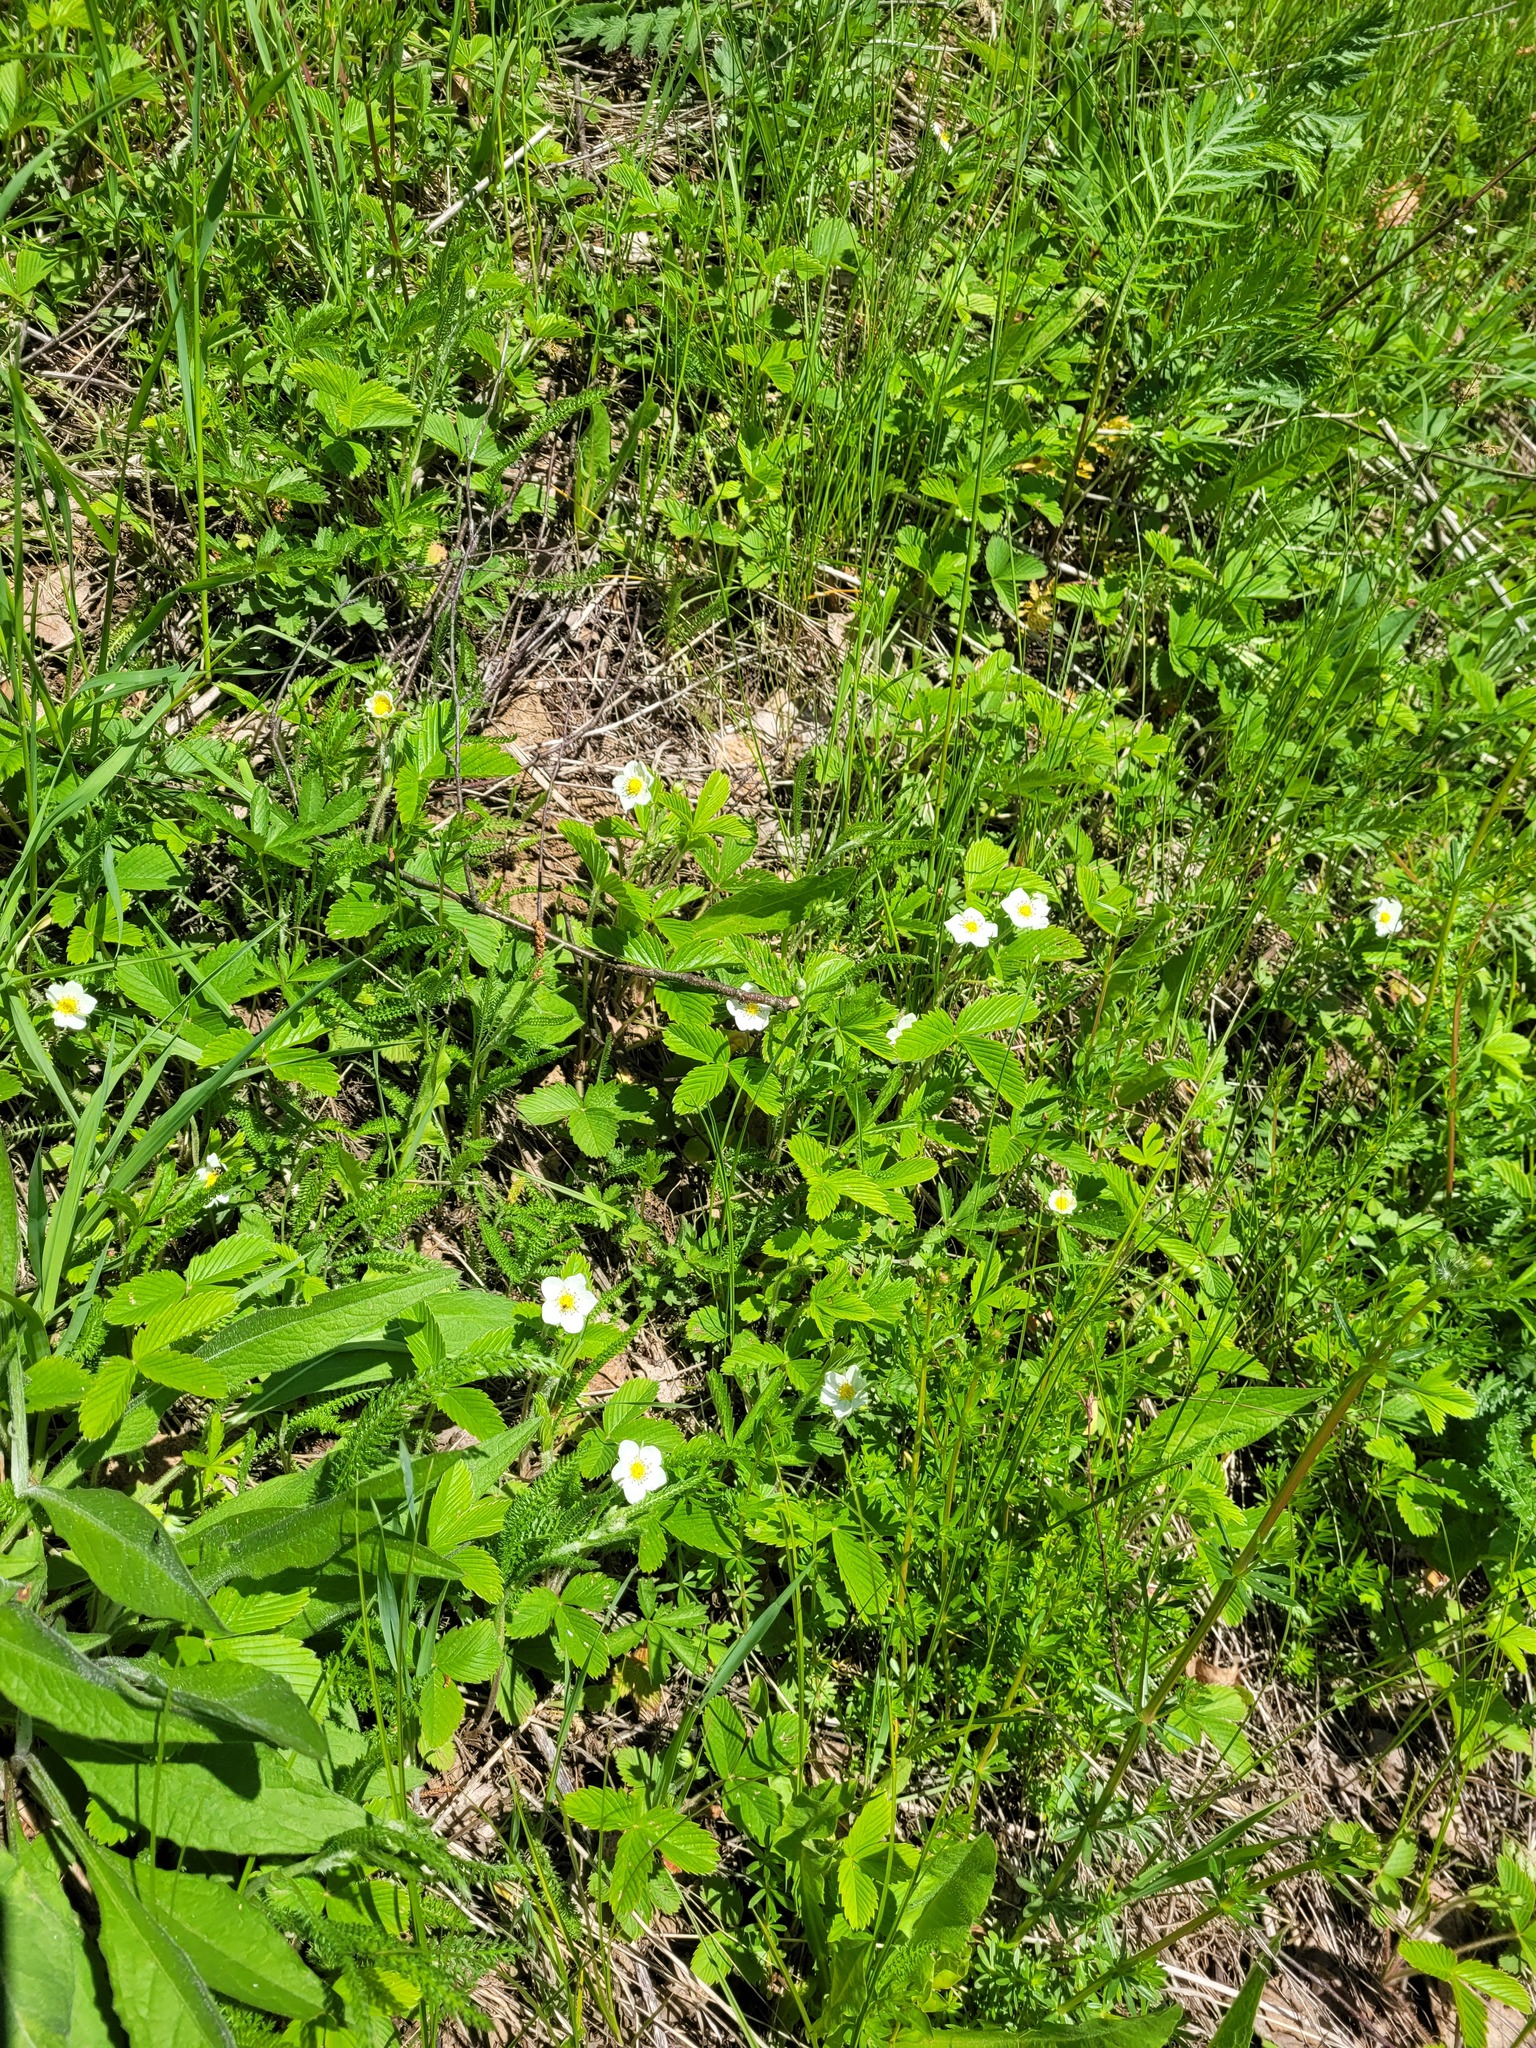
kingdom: Plantae
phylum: Tracheophyta
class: Magnoliopsida
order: Rosales
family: Rosaceae
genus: Fragaria
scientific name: Fragaria viridis
